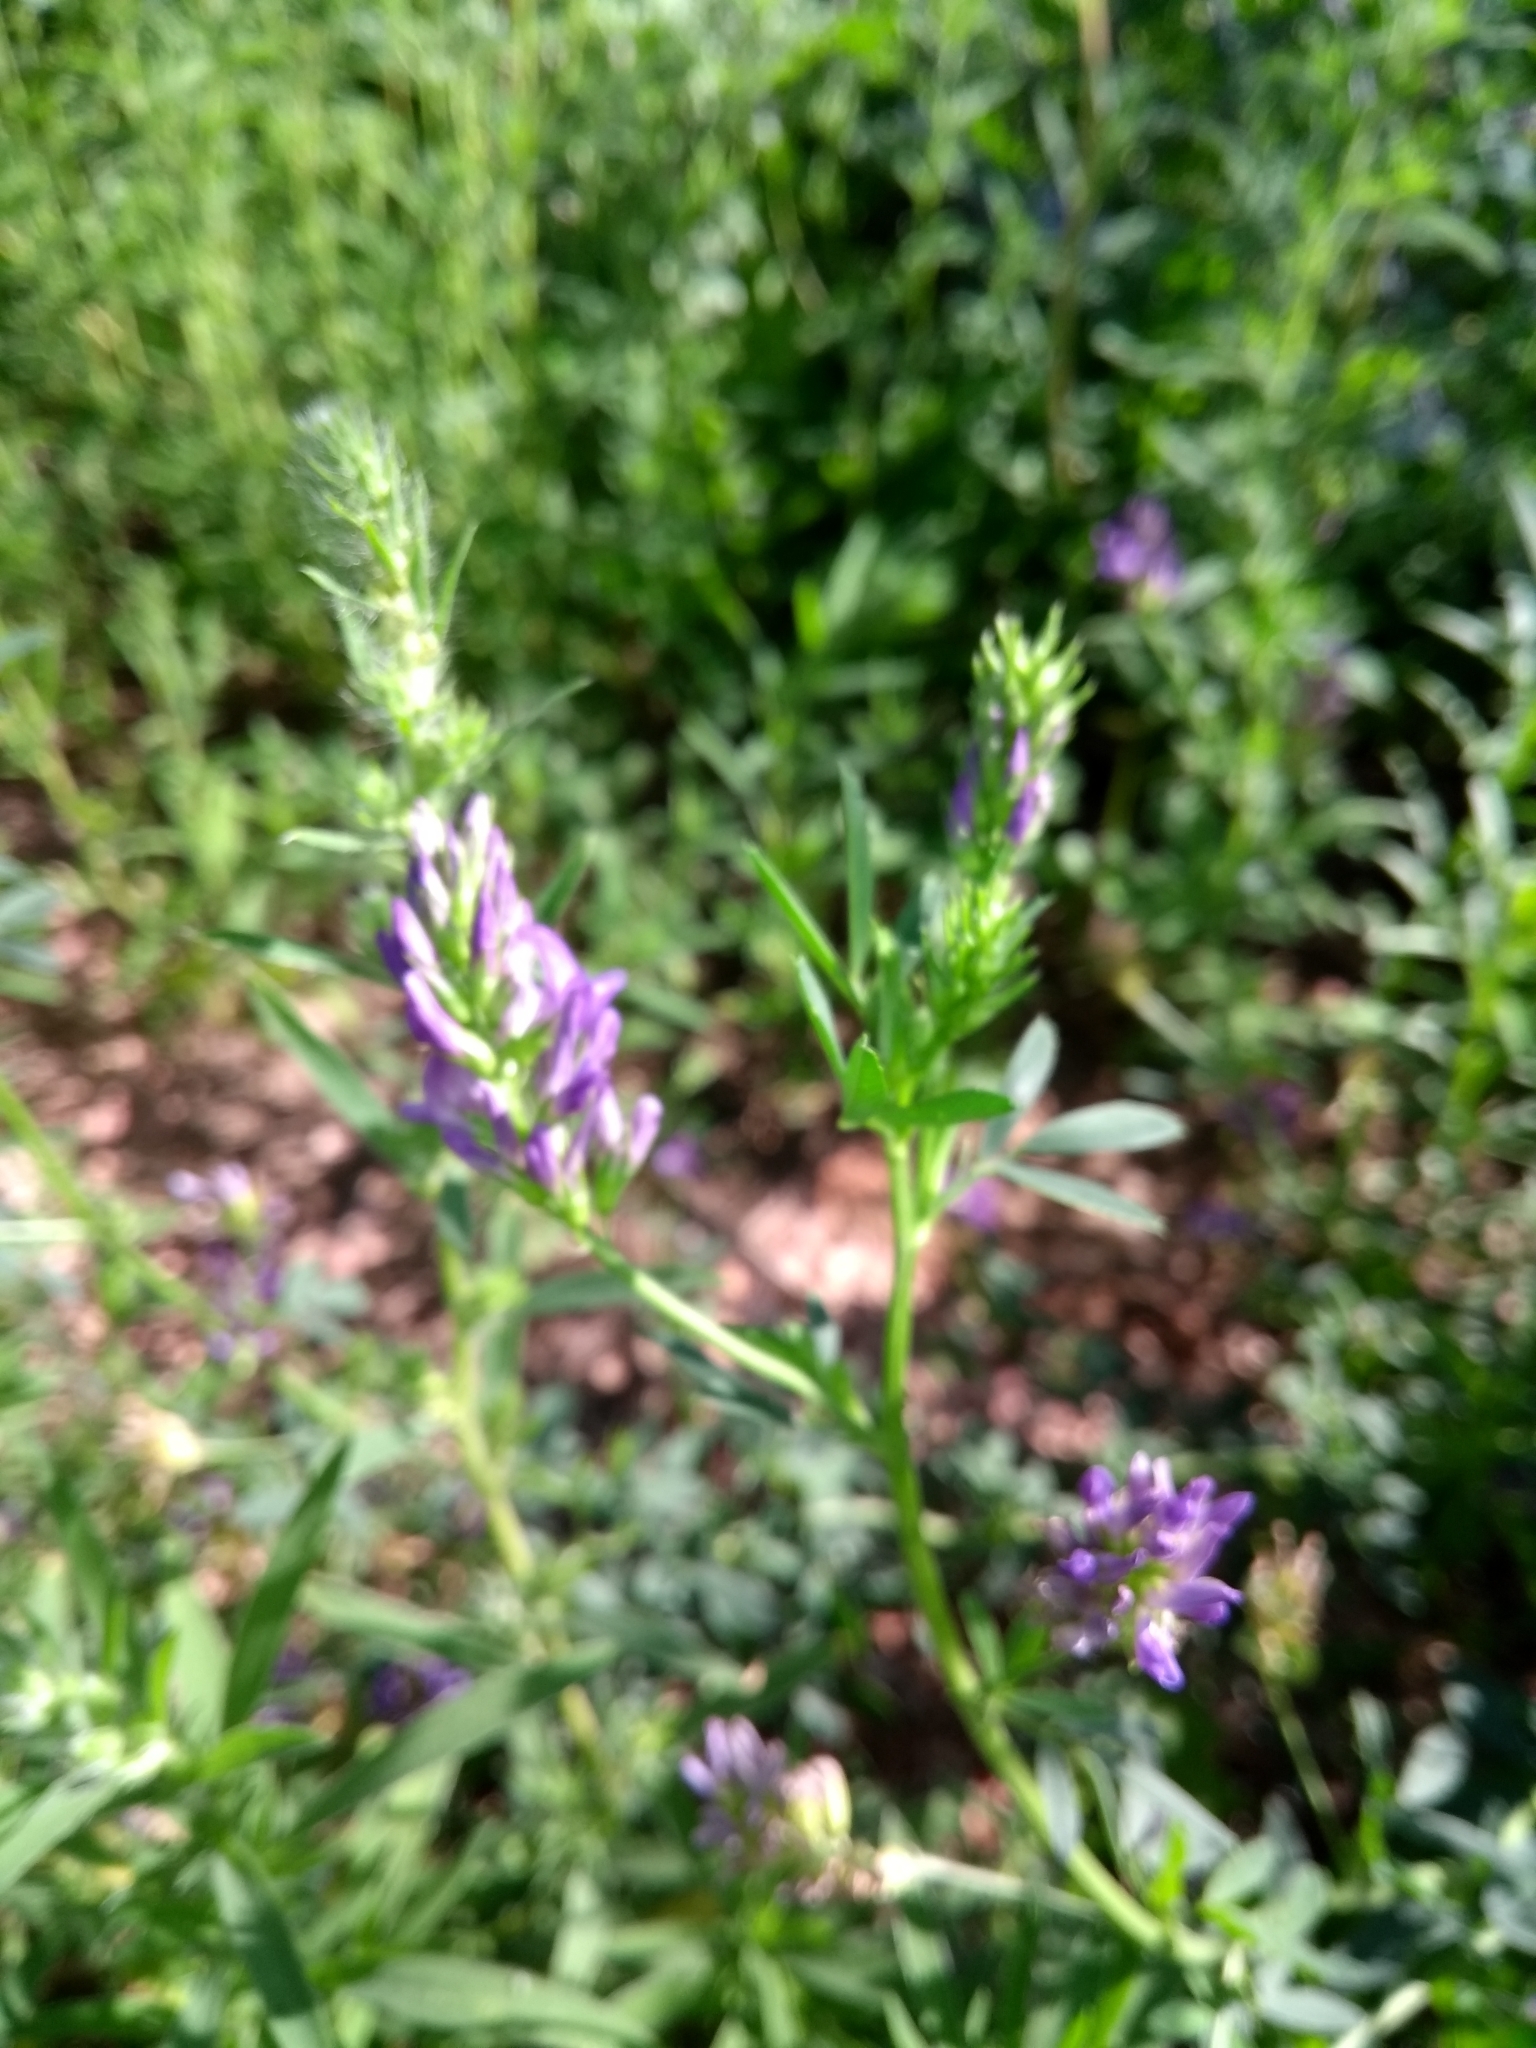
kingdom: Plantae
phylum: Tracheophyta
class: Magnoliopsida
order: Fabales
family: Fabaceae
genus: Medicago
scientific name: Medicago sativa
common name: Alfalfa
